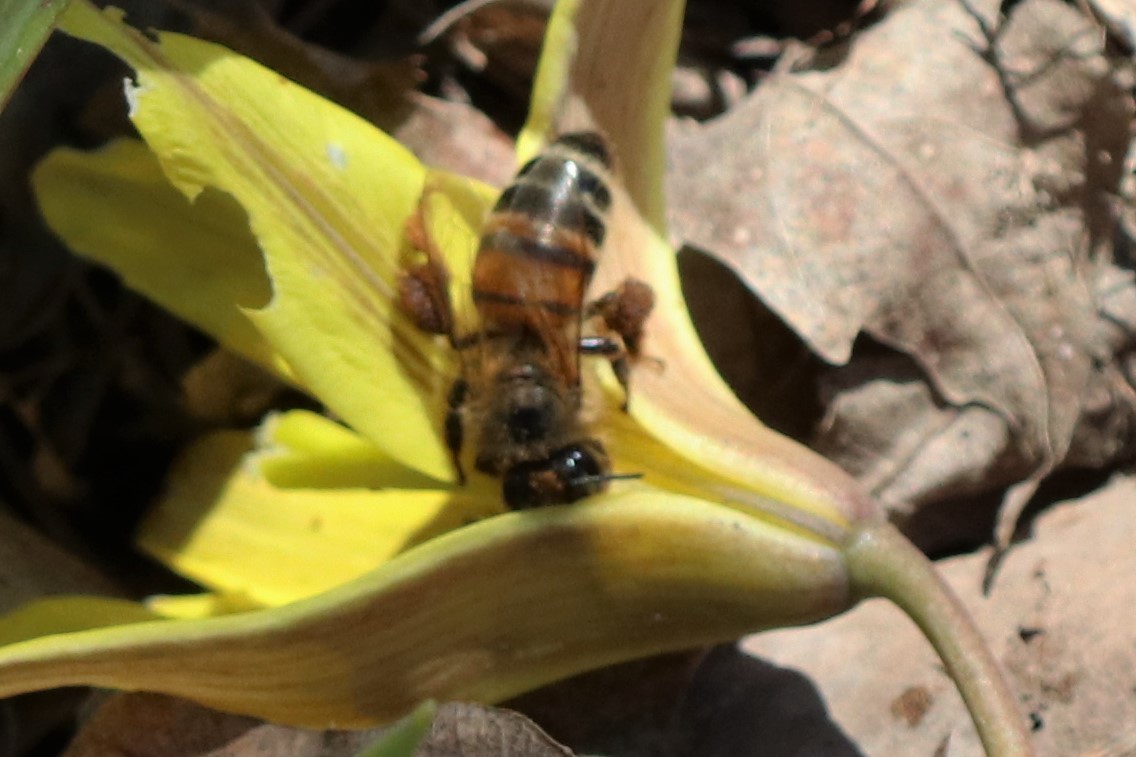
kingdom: Animalia
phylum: Arthropoda
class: Insecta
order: Hymenoptera
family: Apidae
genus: Apis
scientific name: Apis mellifera
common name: Honey bee
